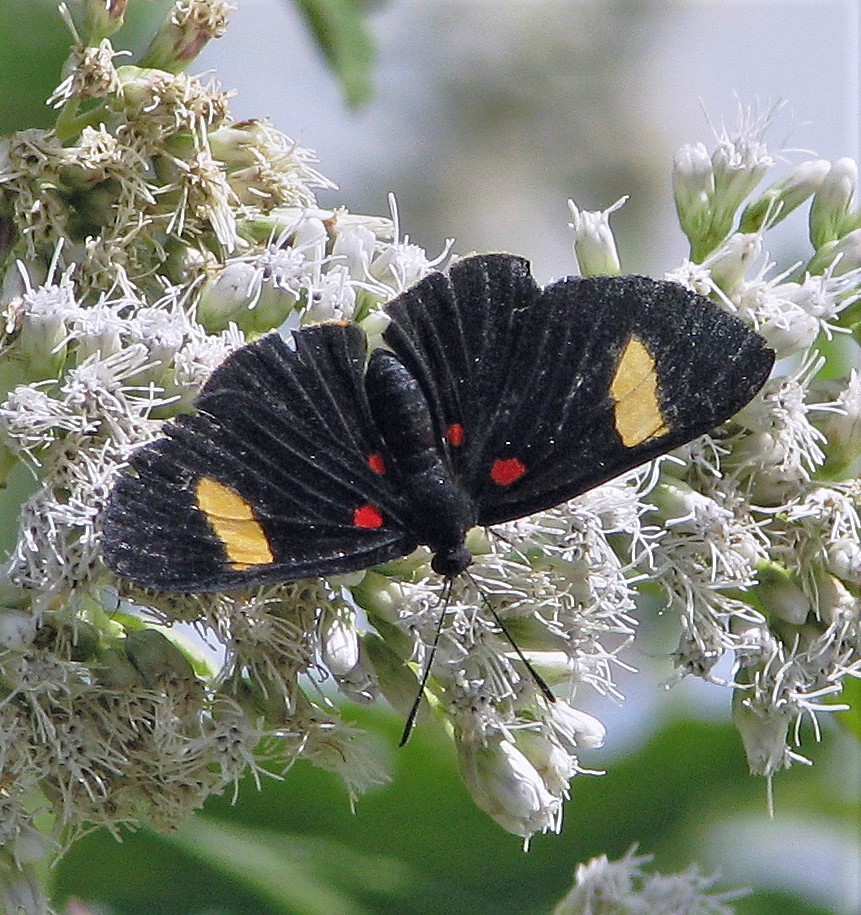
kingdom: Animalia
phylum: Arthropoda
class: Insecta
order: Lepidoptera
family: Lycaenidae
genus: Melanis
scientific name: Melanis aegates
